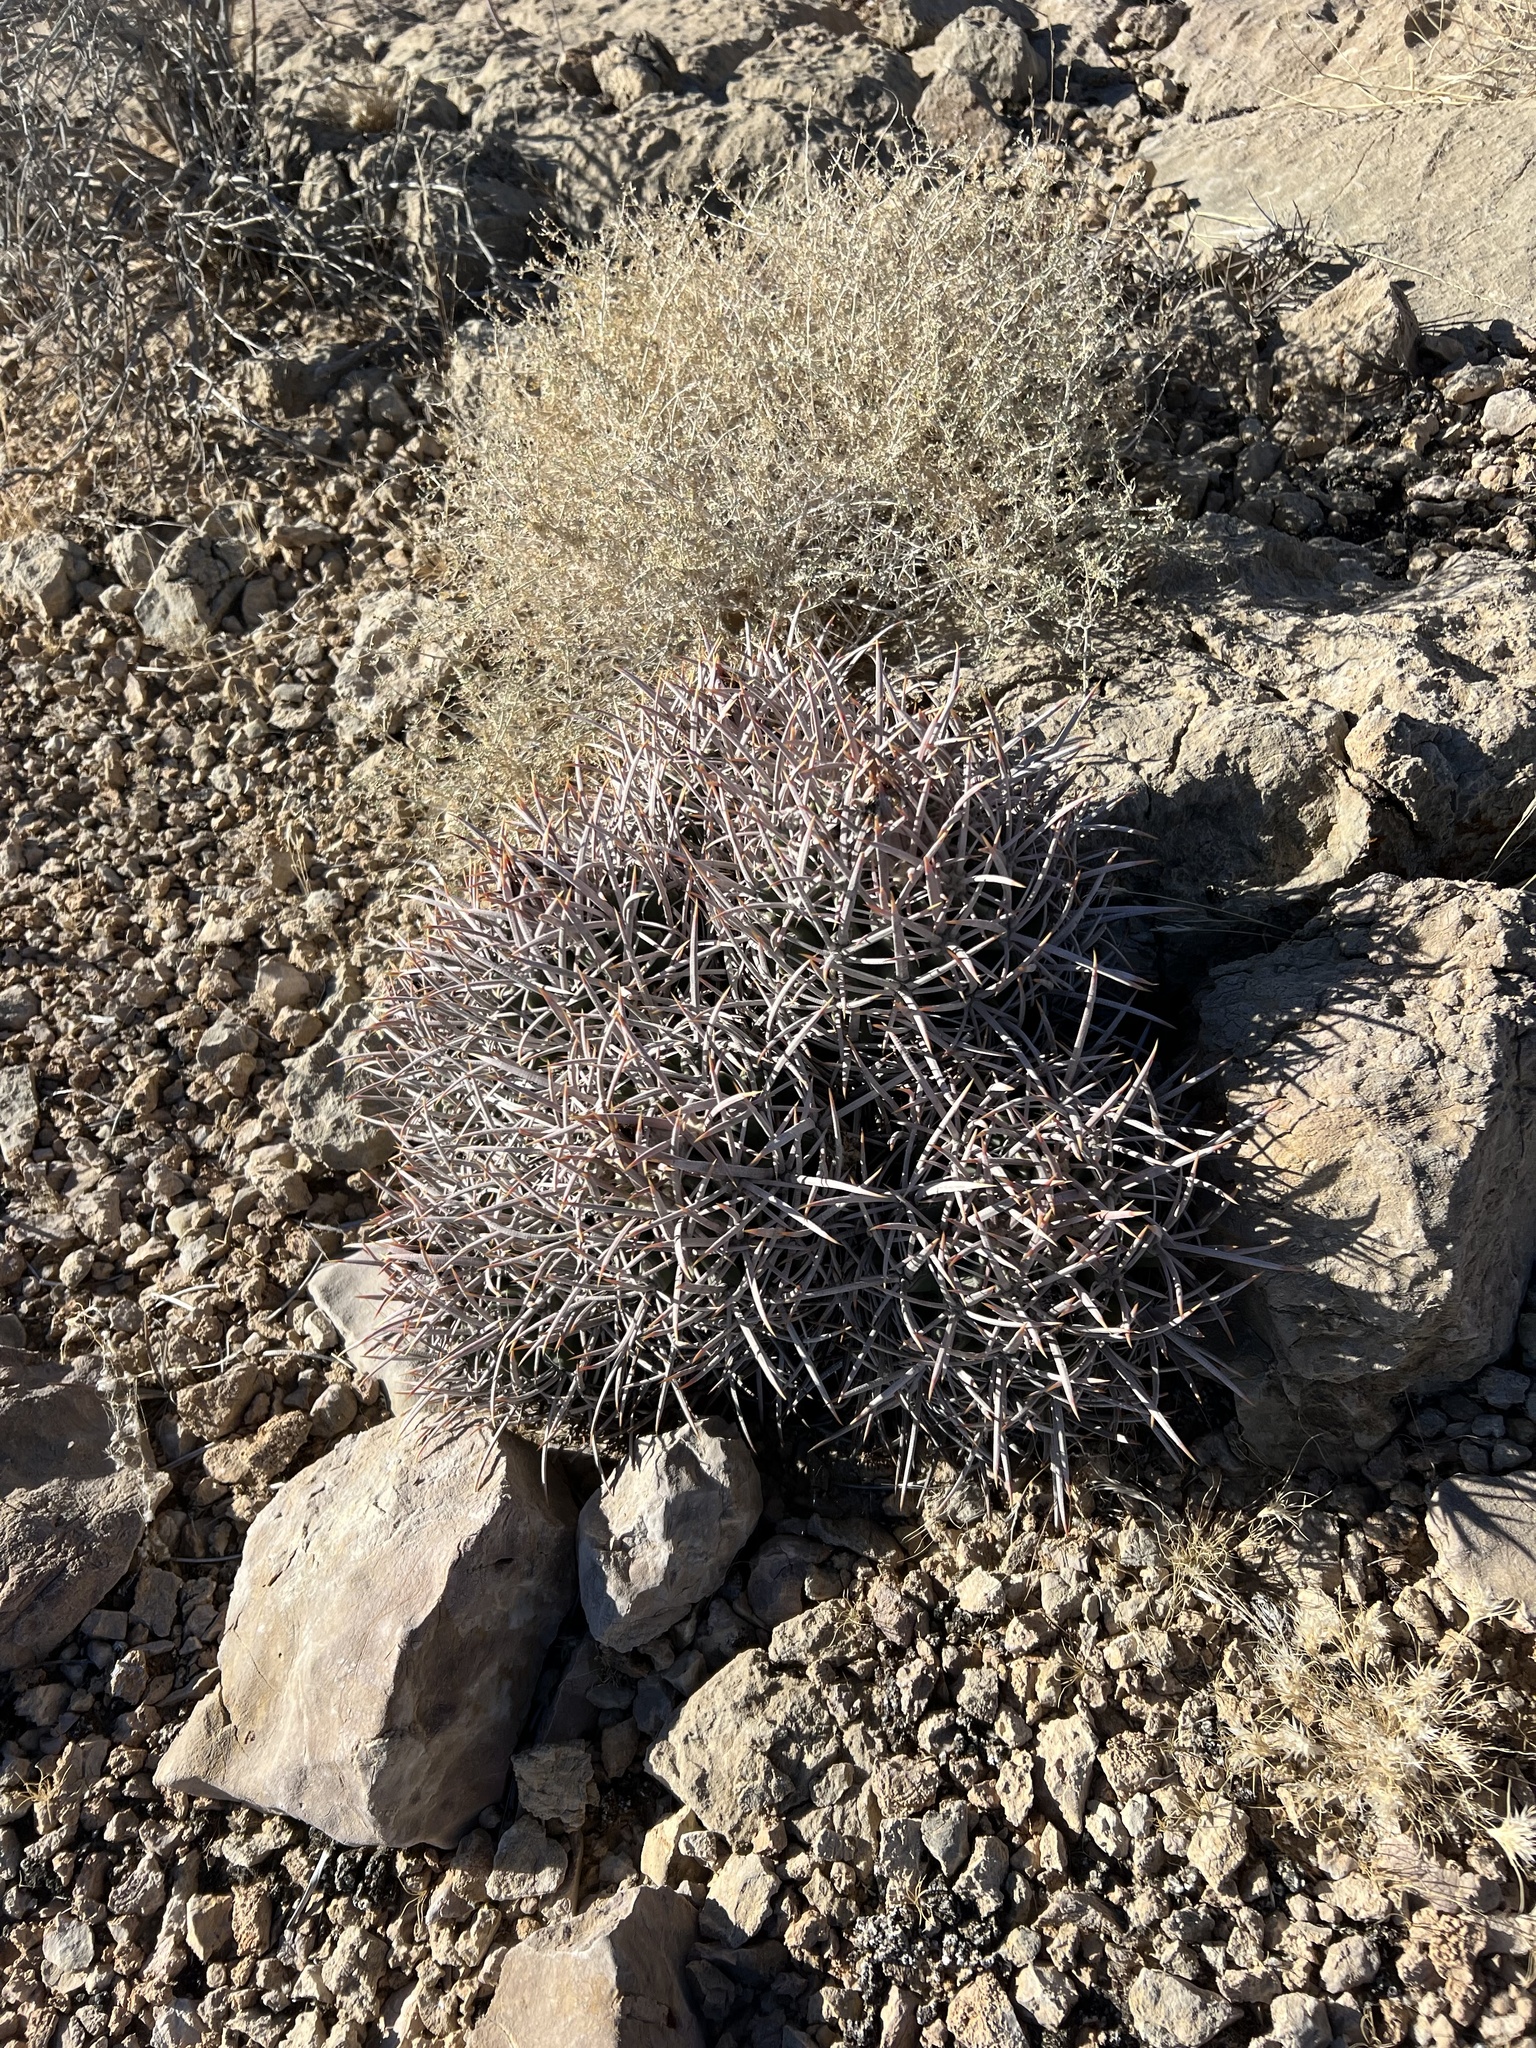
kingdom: Plantae
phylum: Tracheophyta
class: Magnoliopsida
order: Caryophyllales
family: Cactaceae
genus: Echinocactus
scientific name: Echinocactus polycephalus
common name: Cottontop cactus
